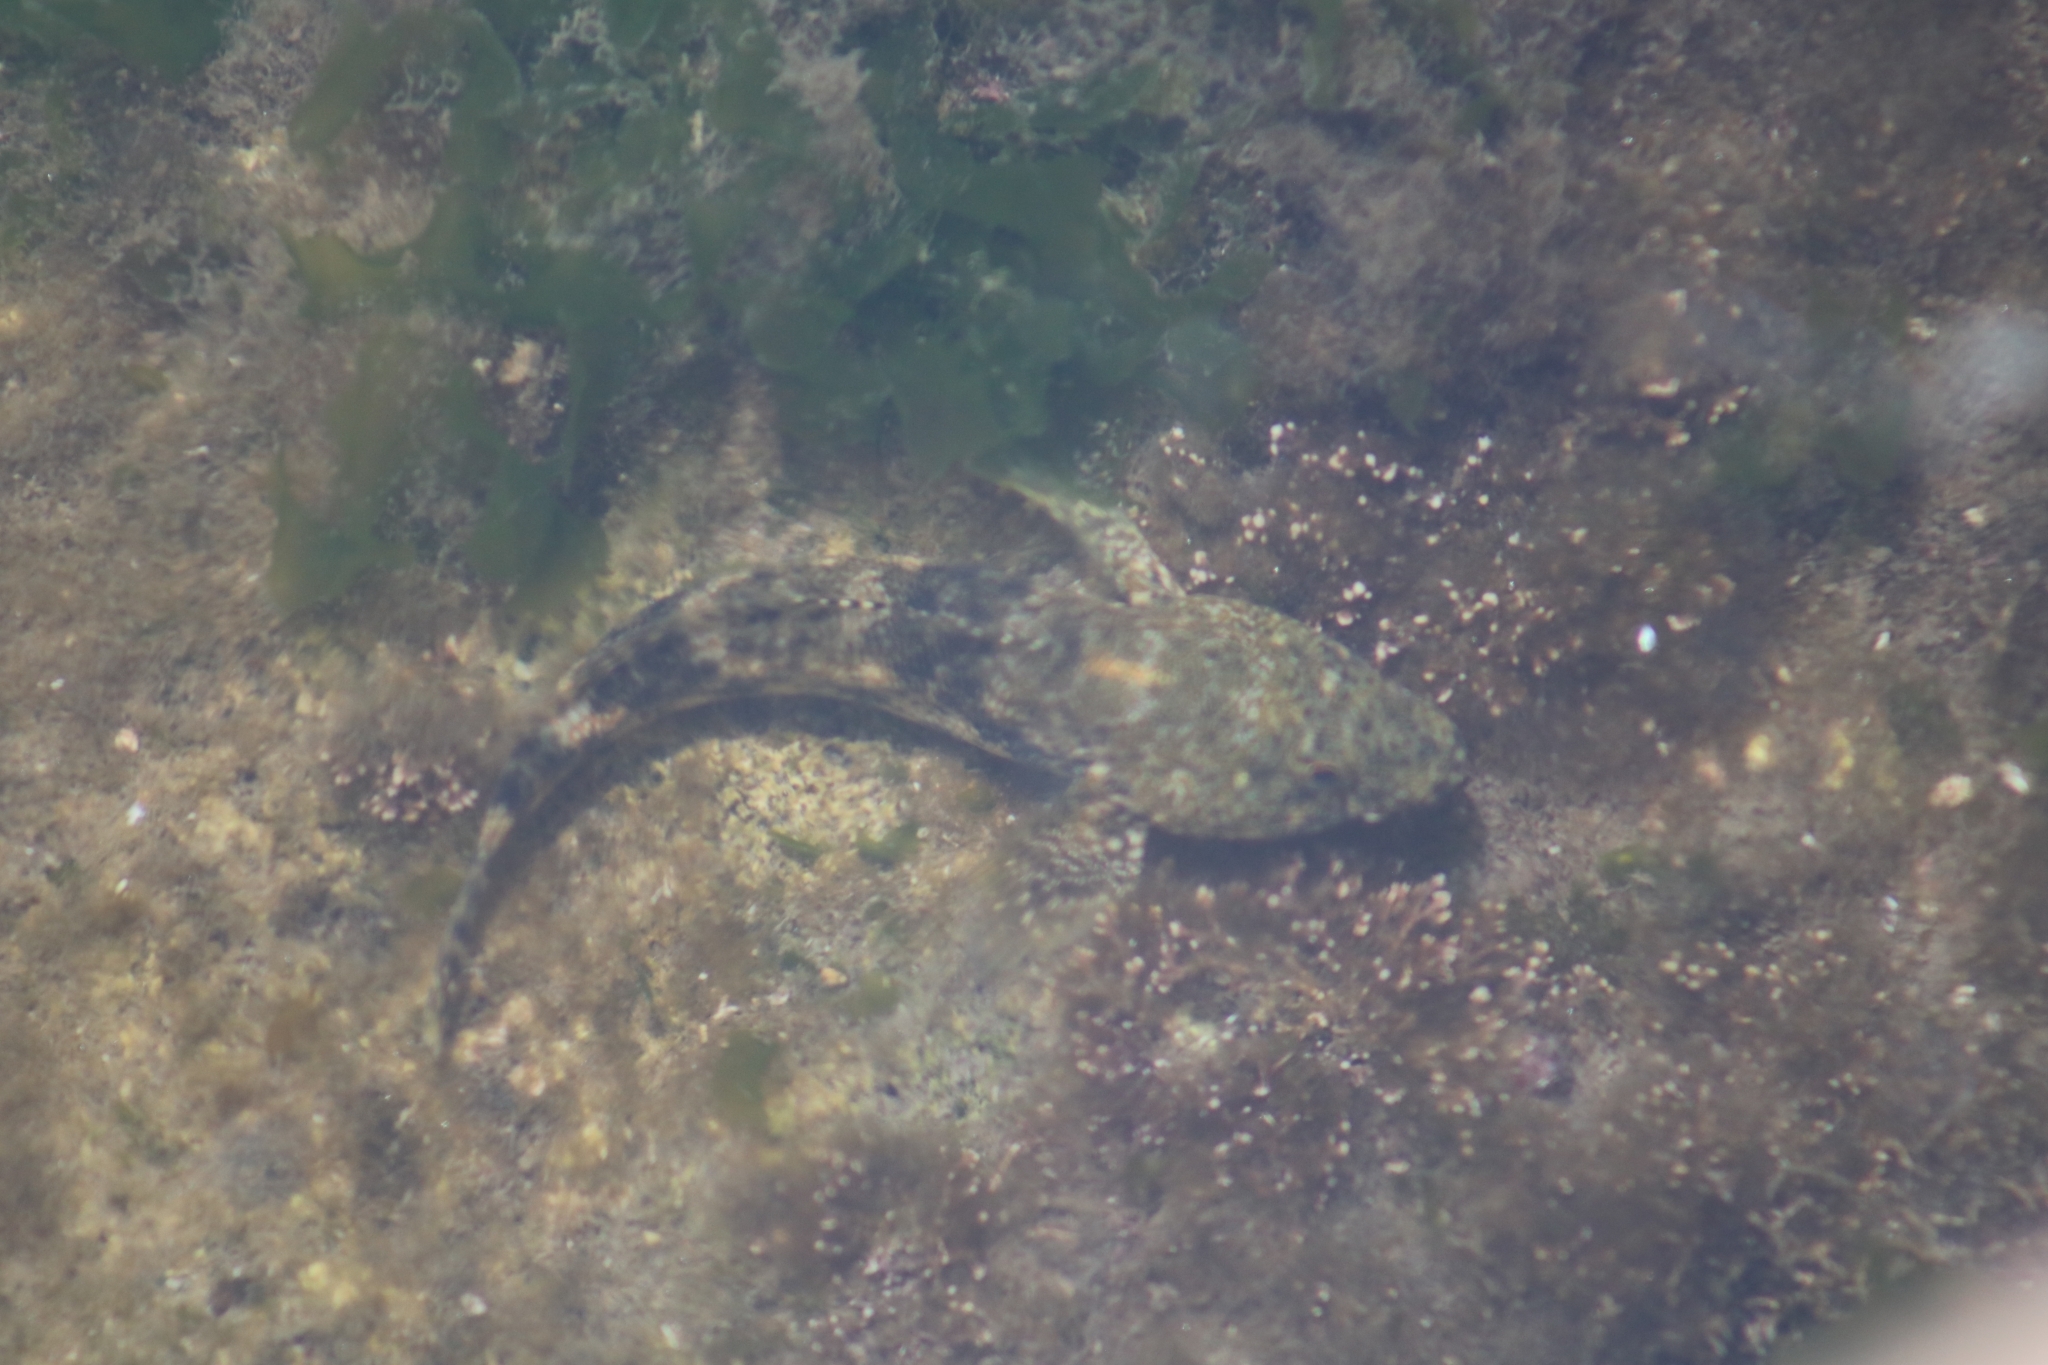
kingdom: Animalia
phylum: Chordata
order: Perciformes
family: Gobiidae
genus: Gobius
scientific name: Gobius cobitis
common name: Giant goby
